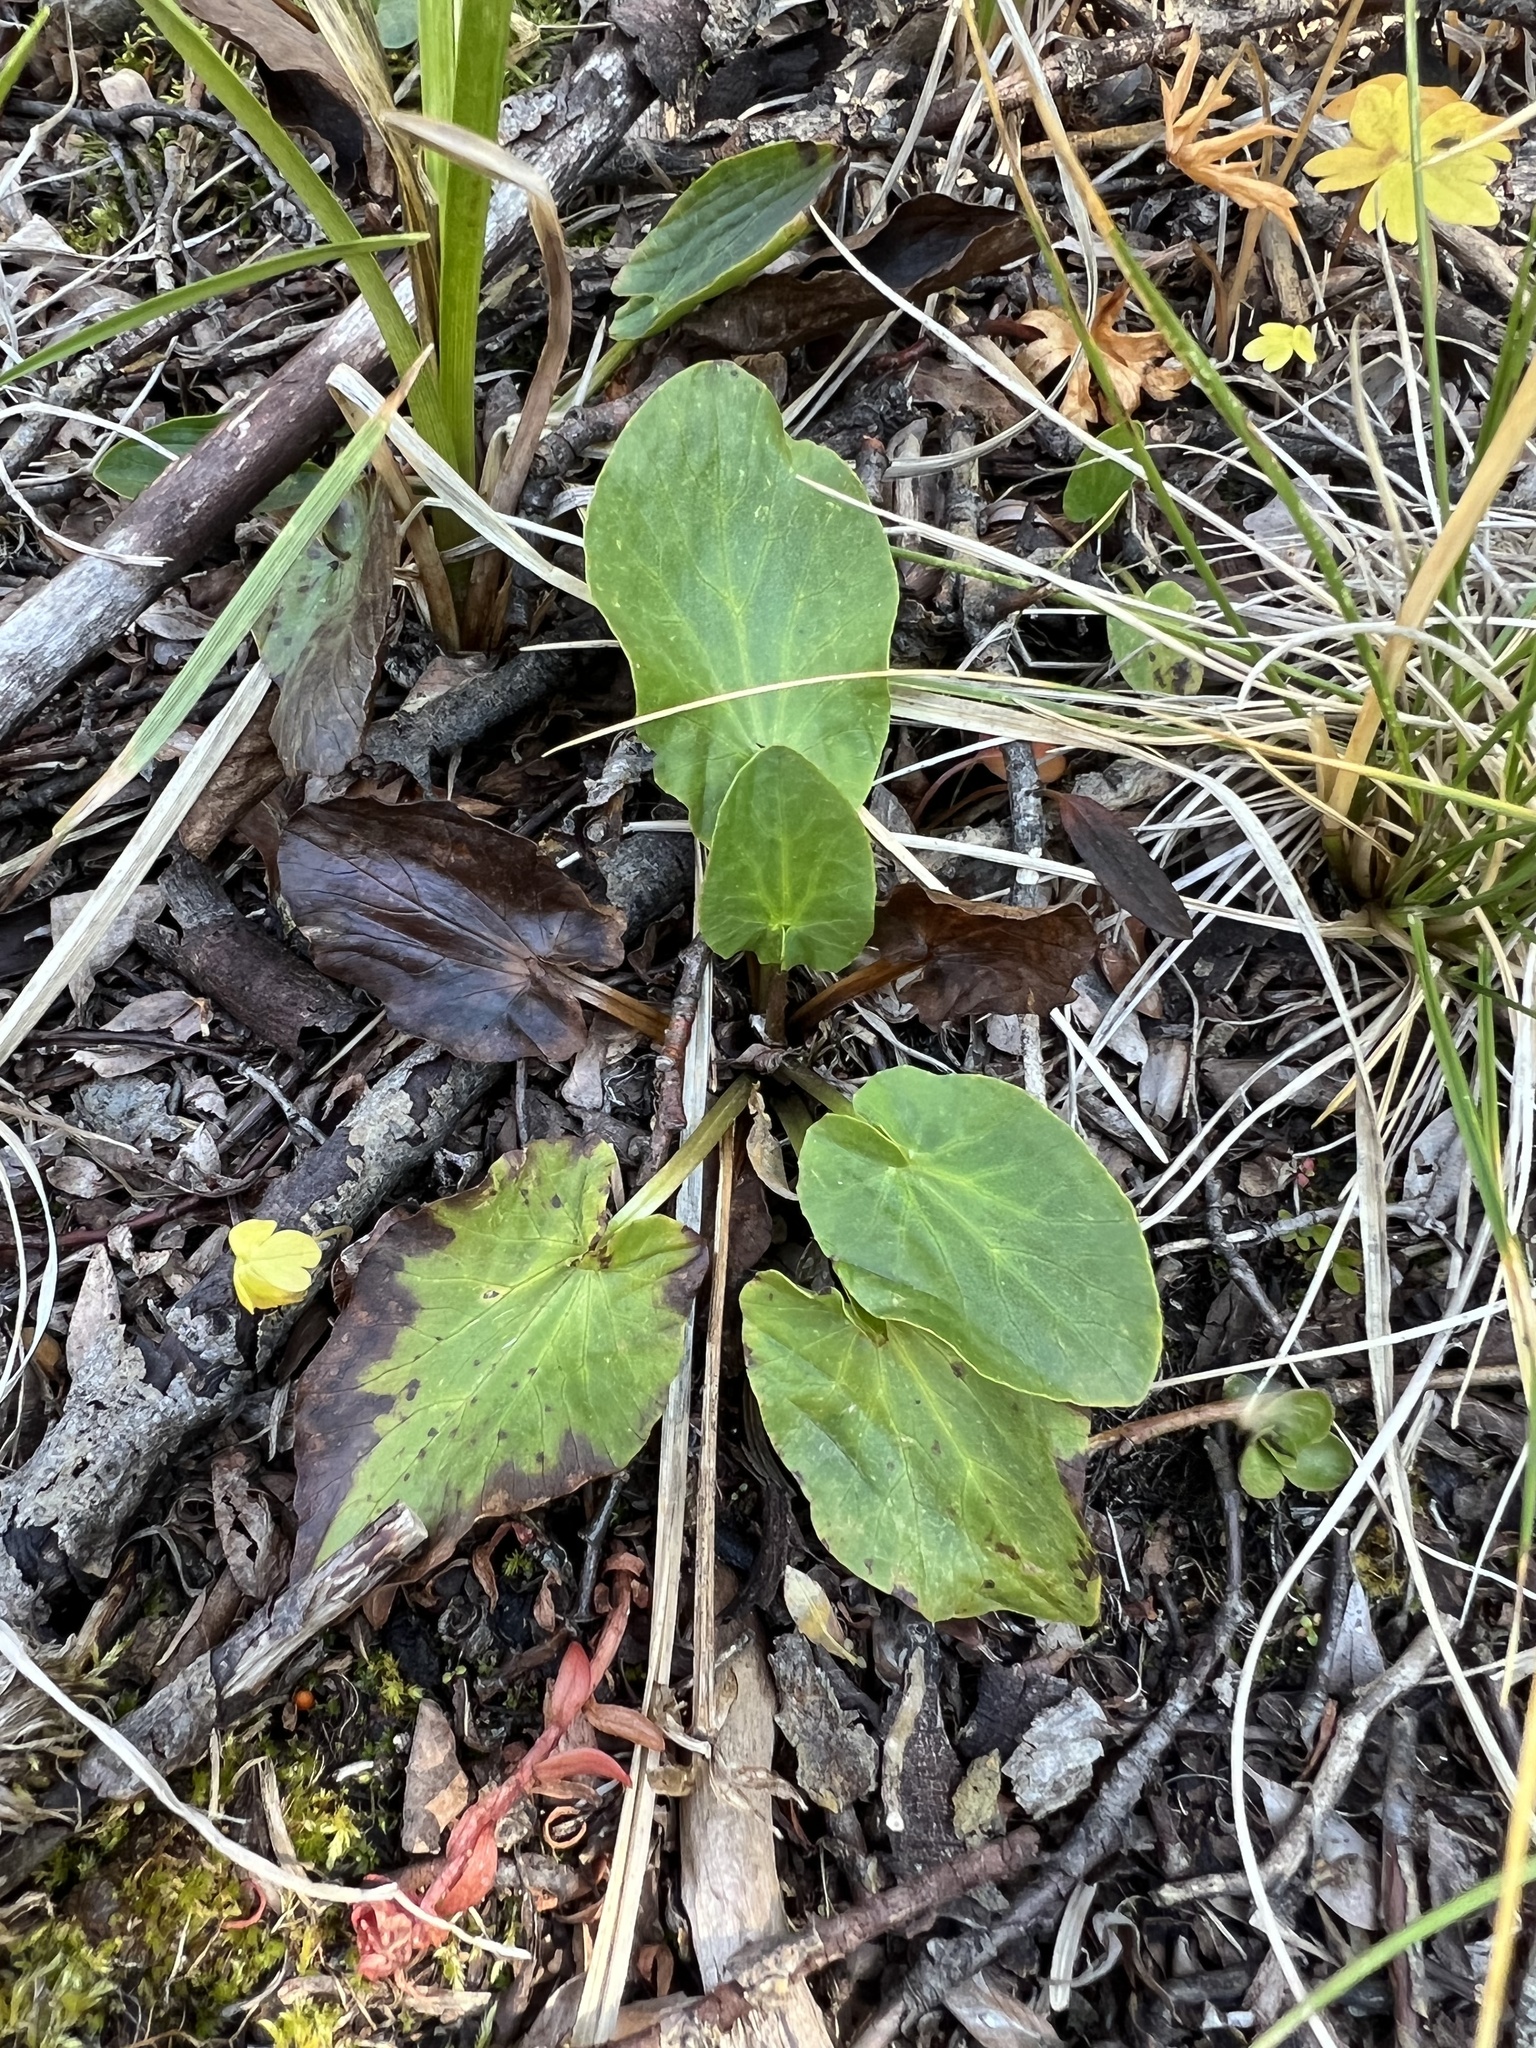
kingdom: Plantae
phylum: Tracheophyta
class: Magnoliopsida
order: Ranunculales
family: Ranunculaceae
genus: Caltha
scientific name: Caltha leptosepala
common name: Elkslip
